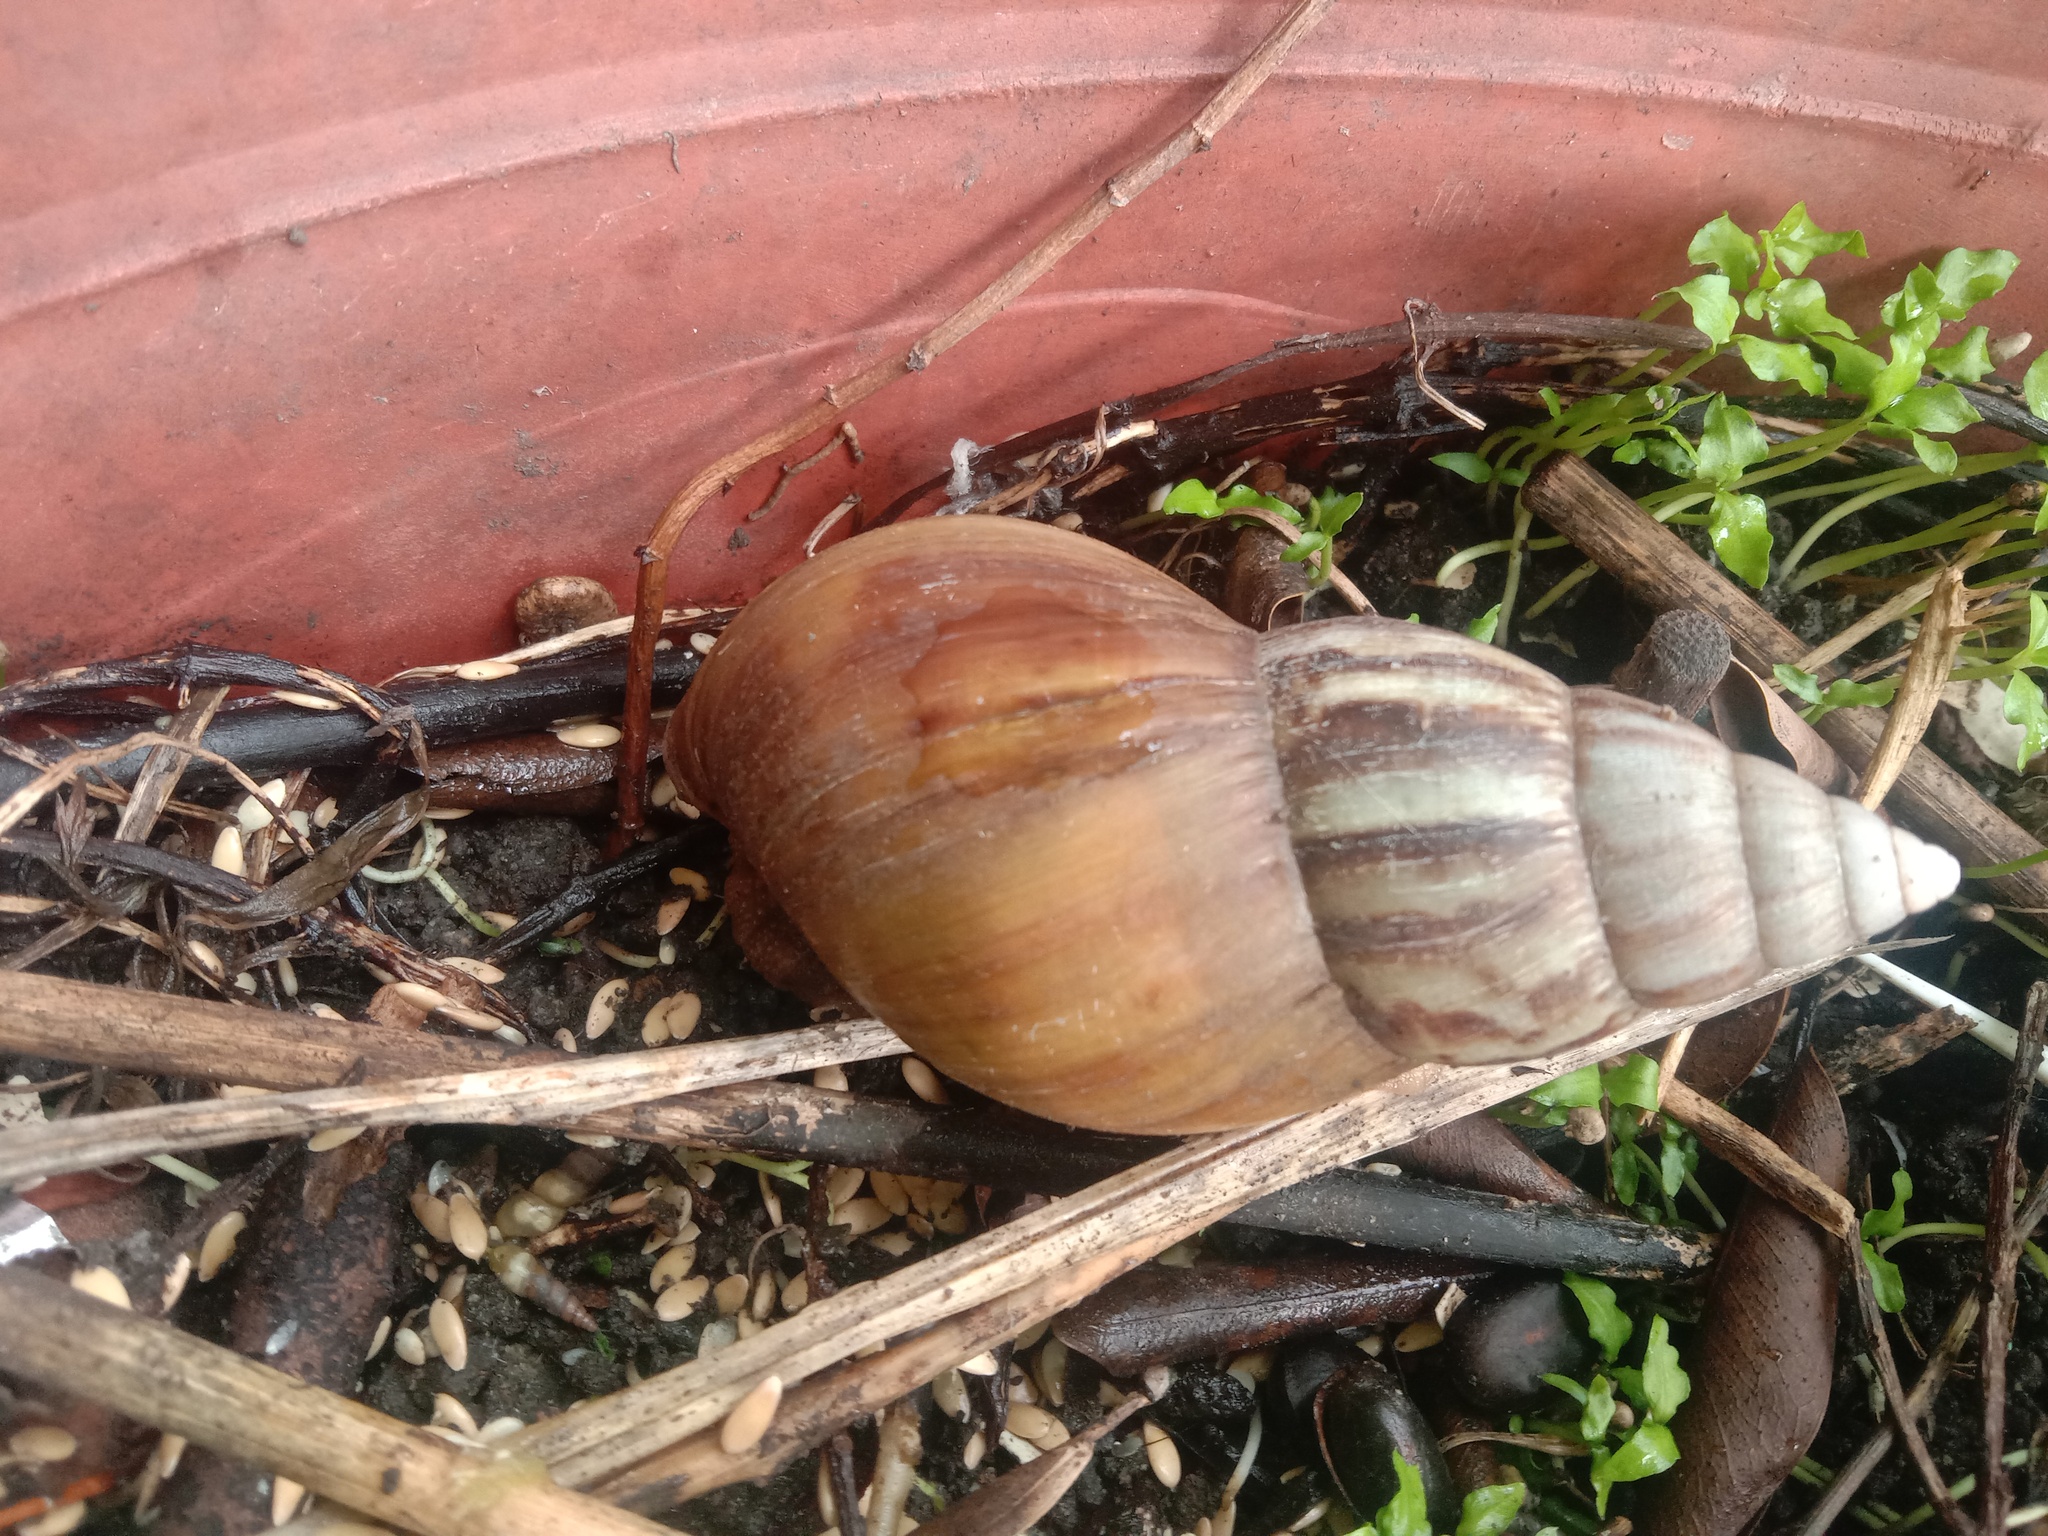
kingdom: Animalia
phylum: Mollusca
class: Gastropoda
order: Stylommatophora
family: Achatinidae
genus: Lissachatina
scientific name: Lissachatina fulica
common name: Giant african snail
